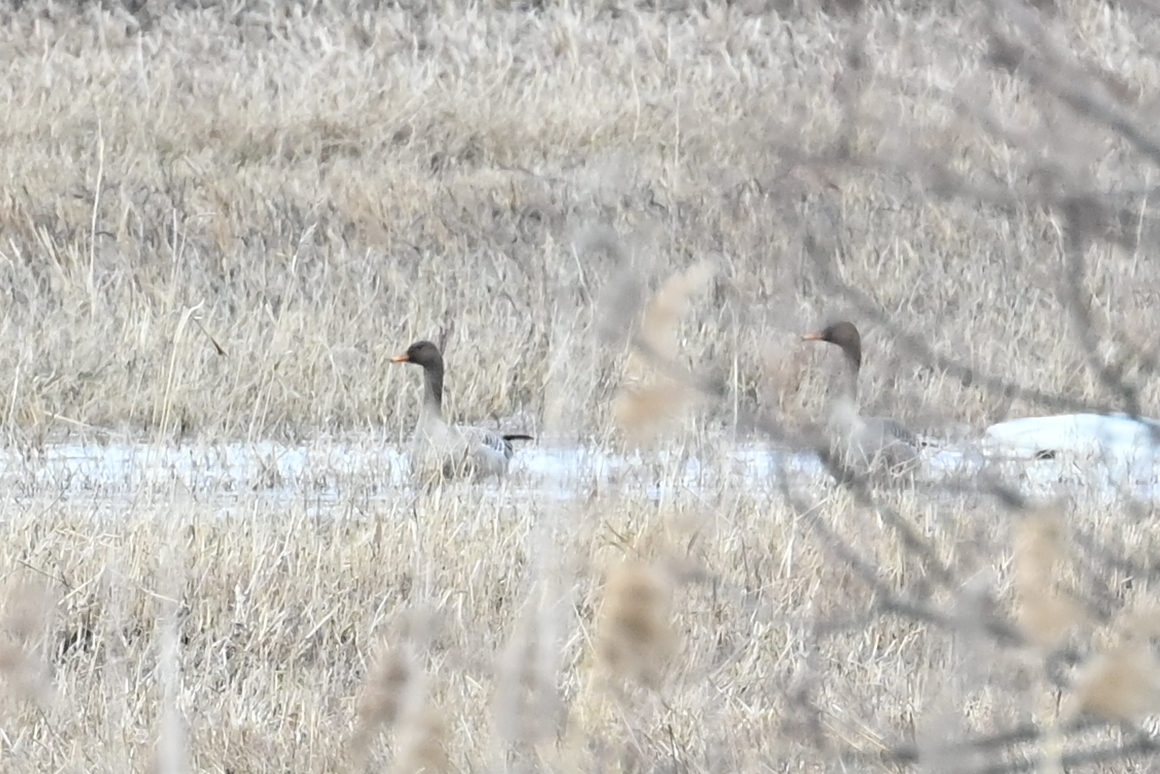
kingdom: Animalia
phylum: Chordata
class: Aves
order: Anseriformes
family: Anatidae
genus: Anser
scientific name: Anser fabalis
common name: Bean goose
